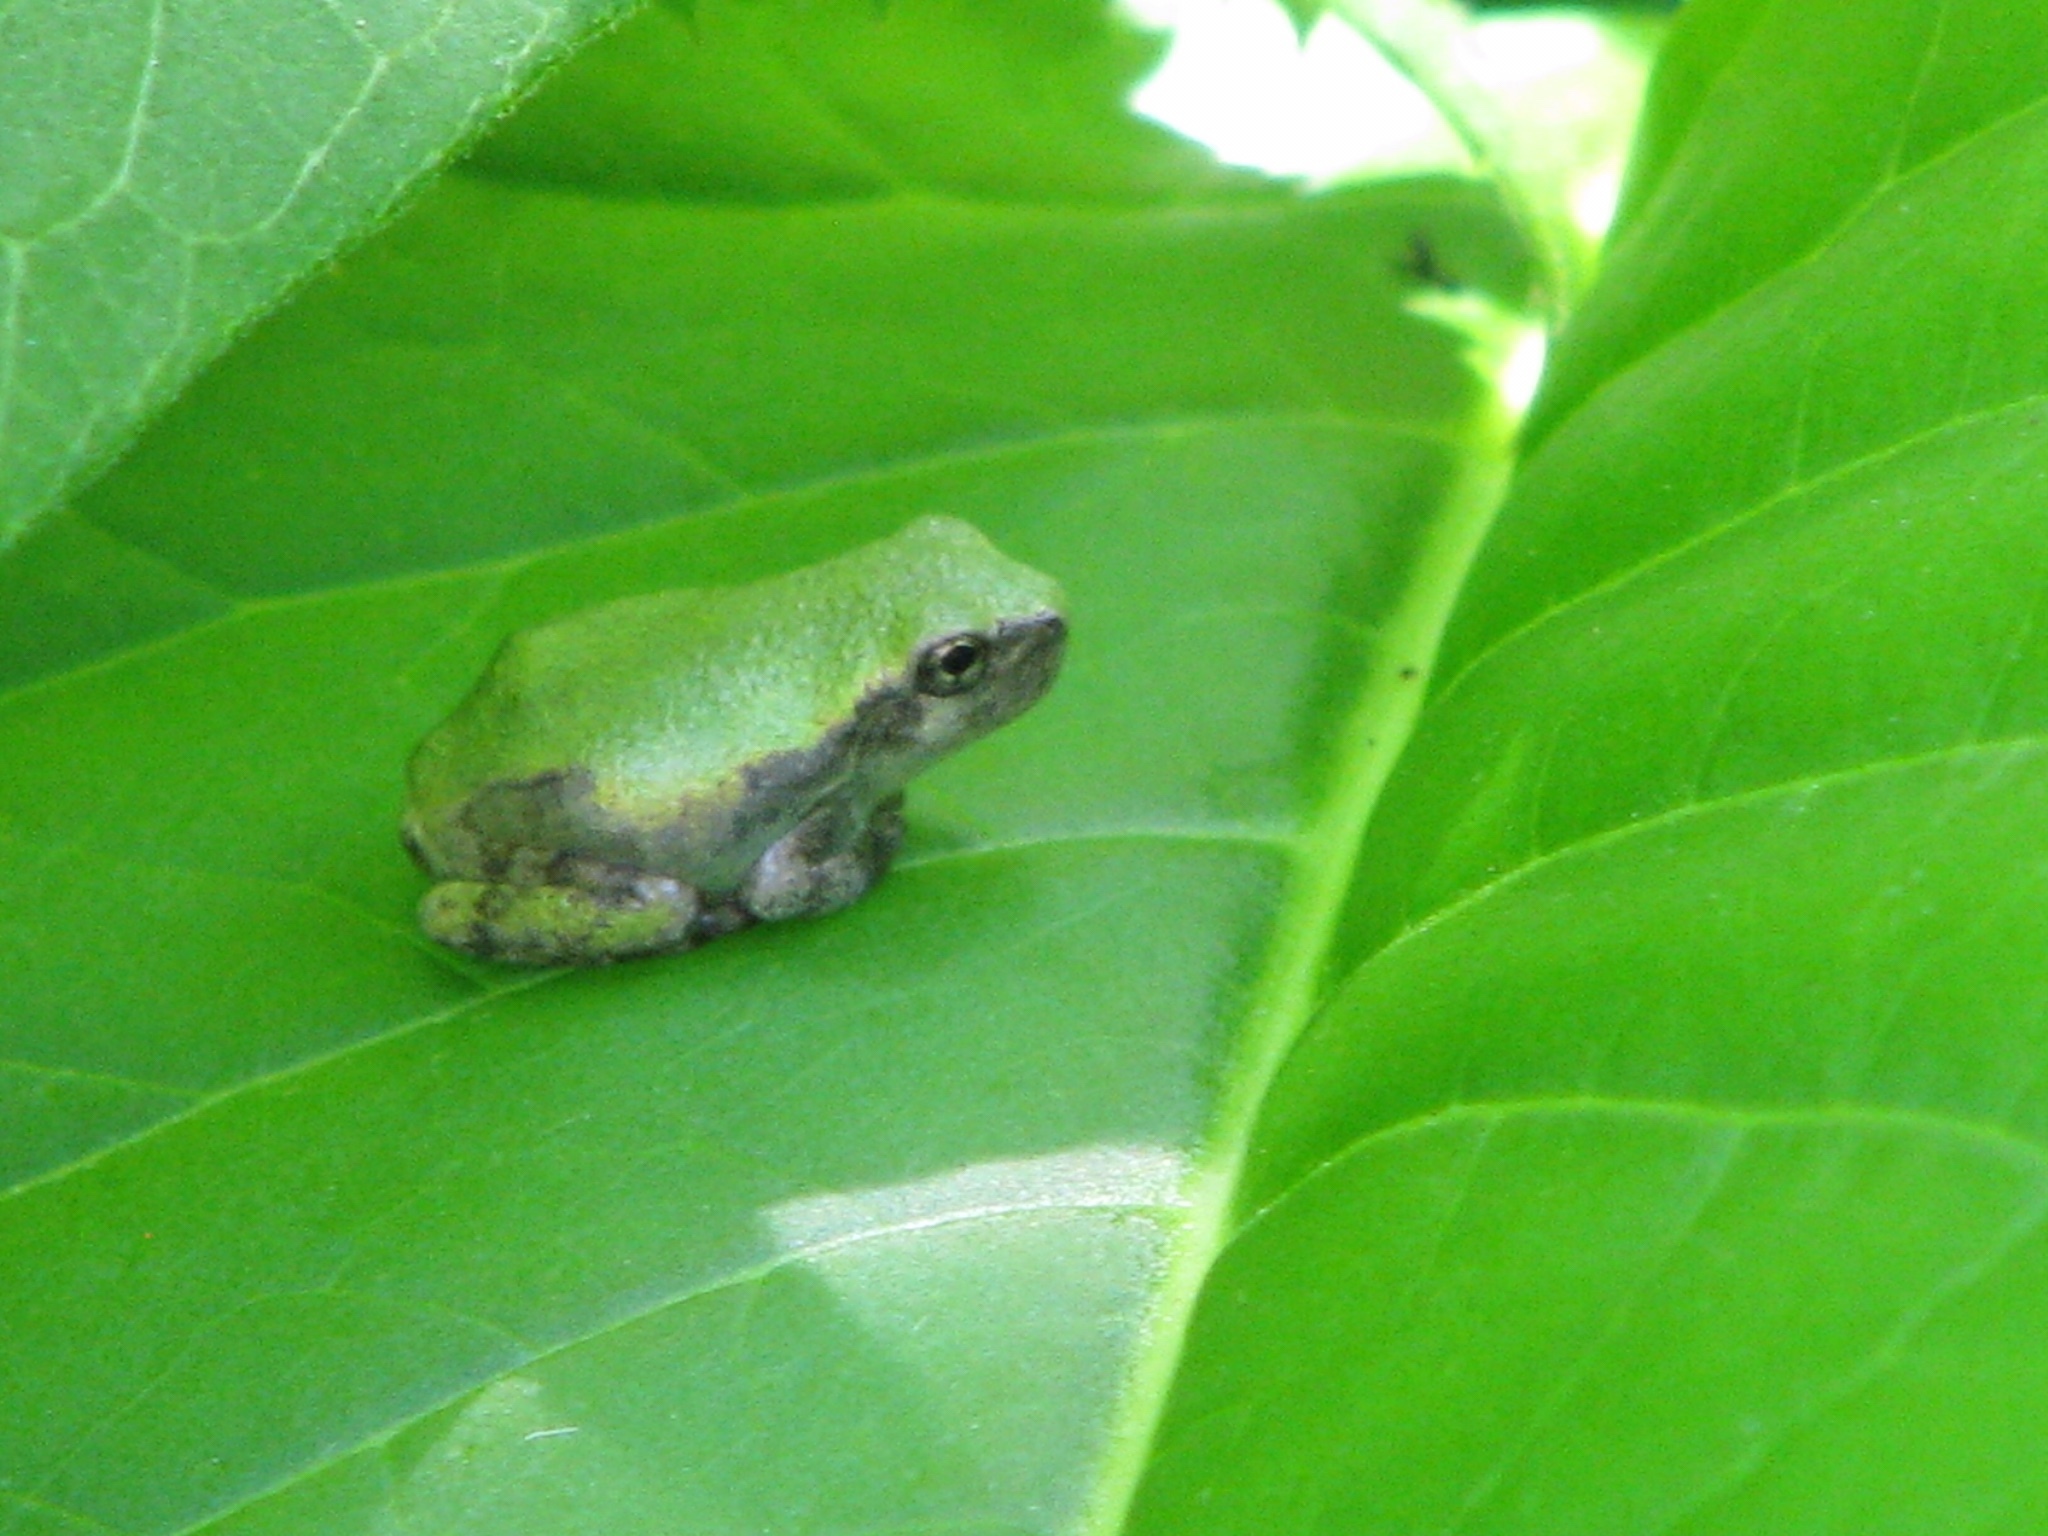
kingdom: Animalia
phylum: Chordata
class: Amphibia
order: Anura
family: Hylidae
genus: Hyla
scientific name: Hyla
